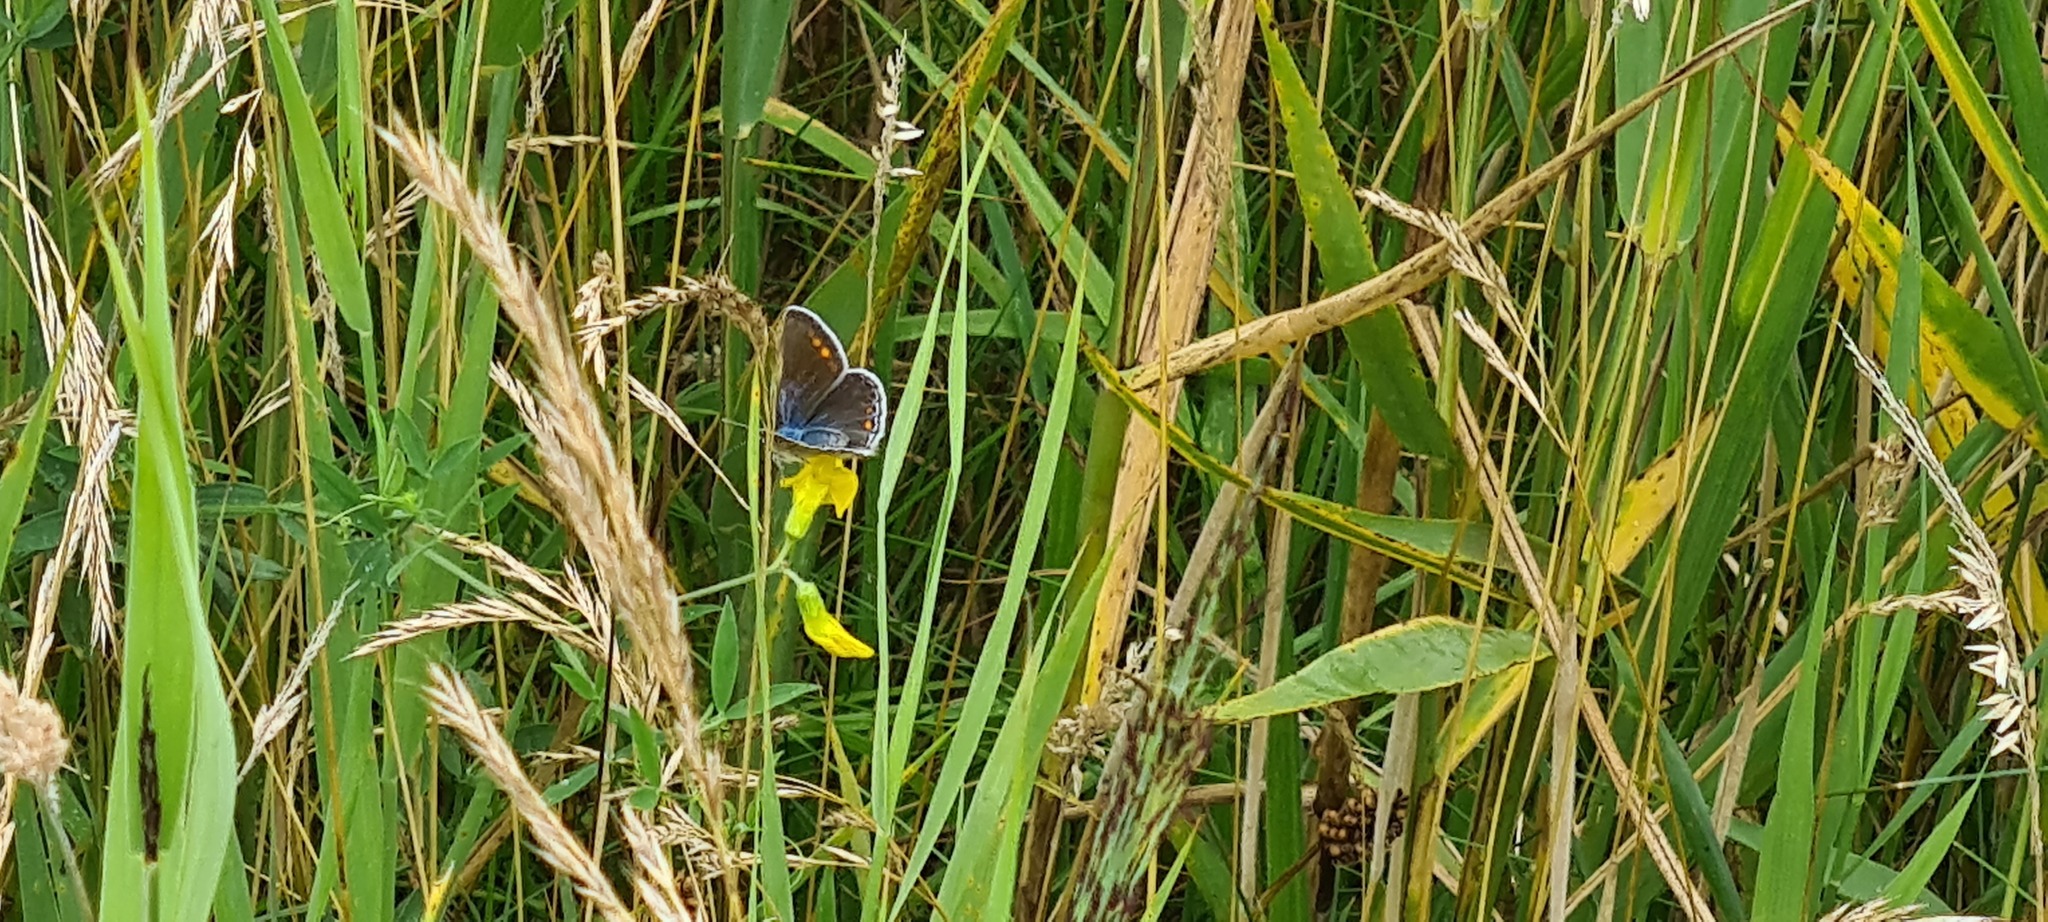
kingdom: Animalia
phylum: Arthropoda
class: Insecta
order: Lepidoptera
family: Lycaenidae
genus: Polyommatus
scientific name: Polyommatus icarus
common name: Common blue
